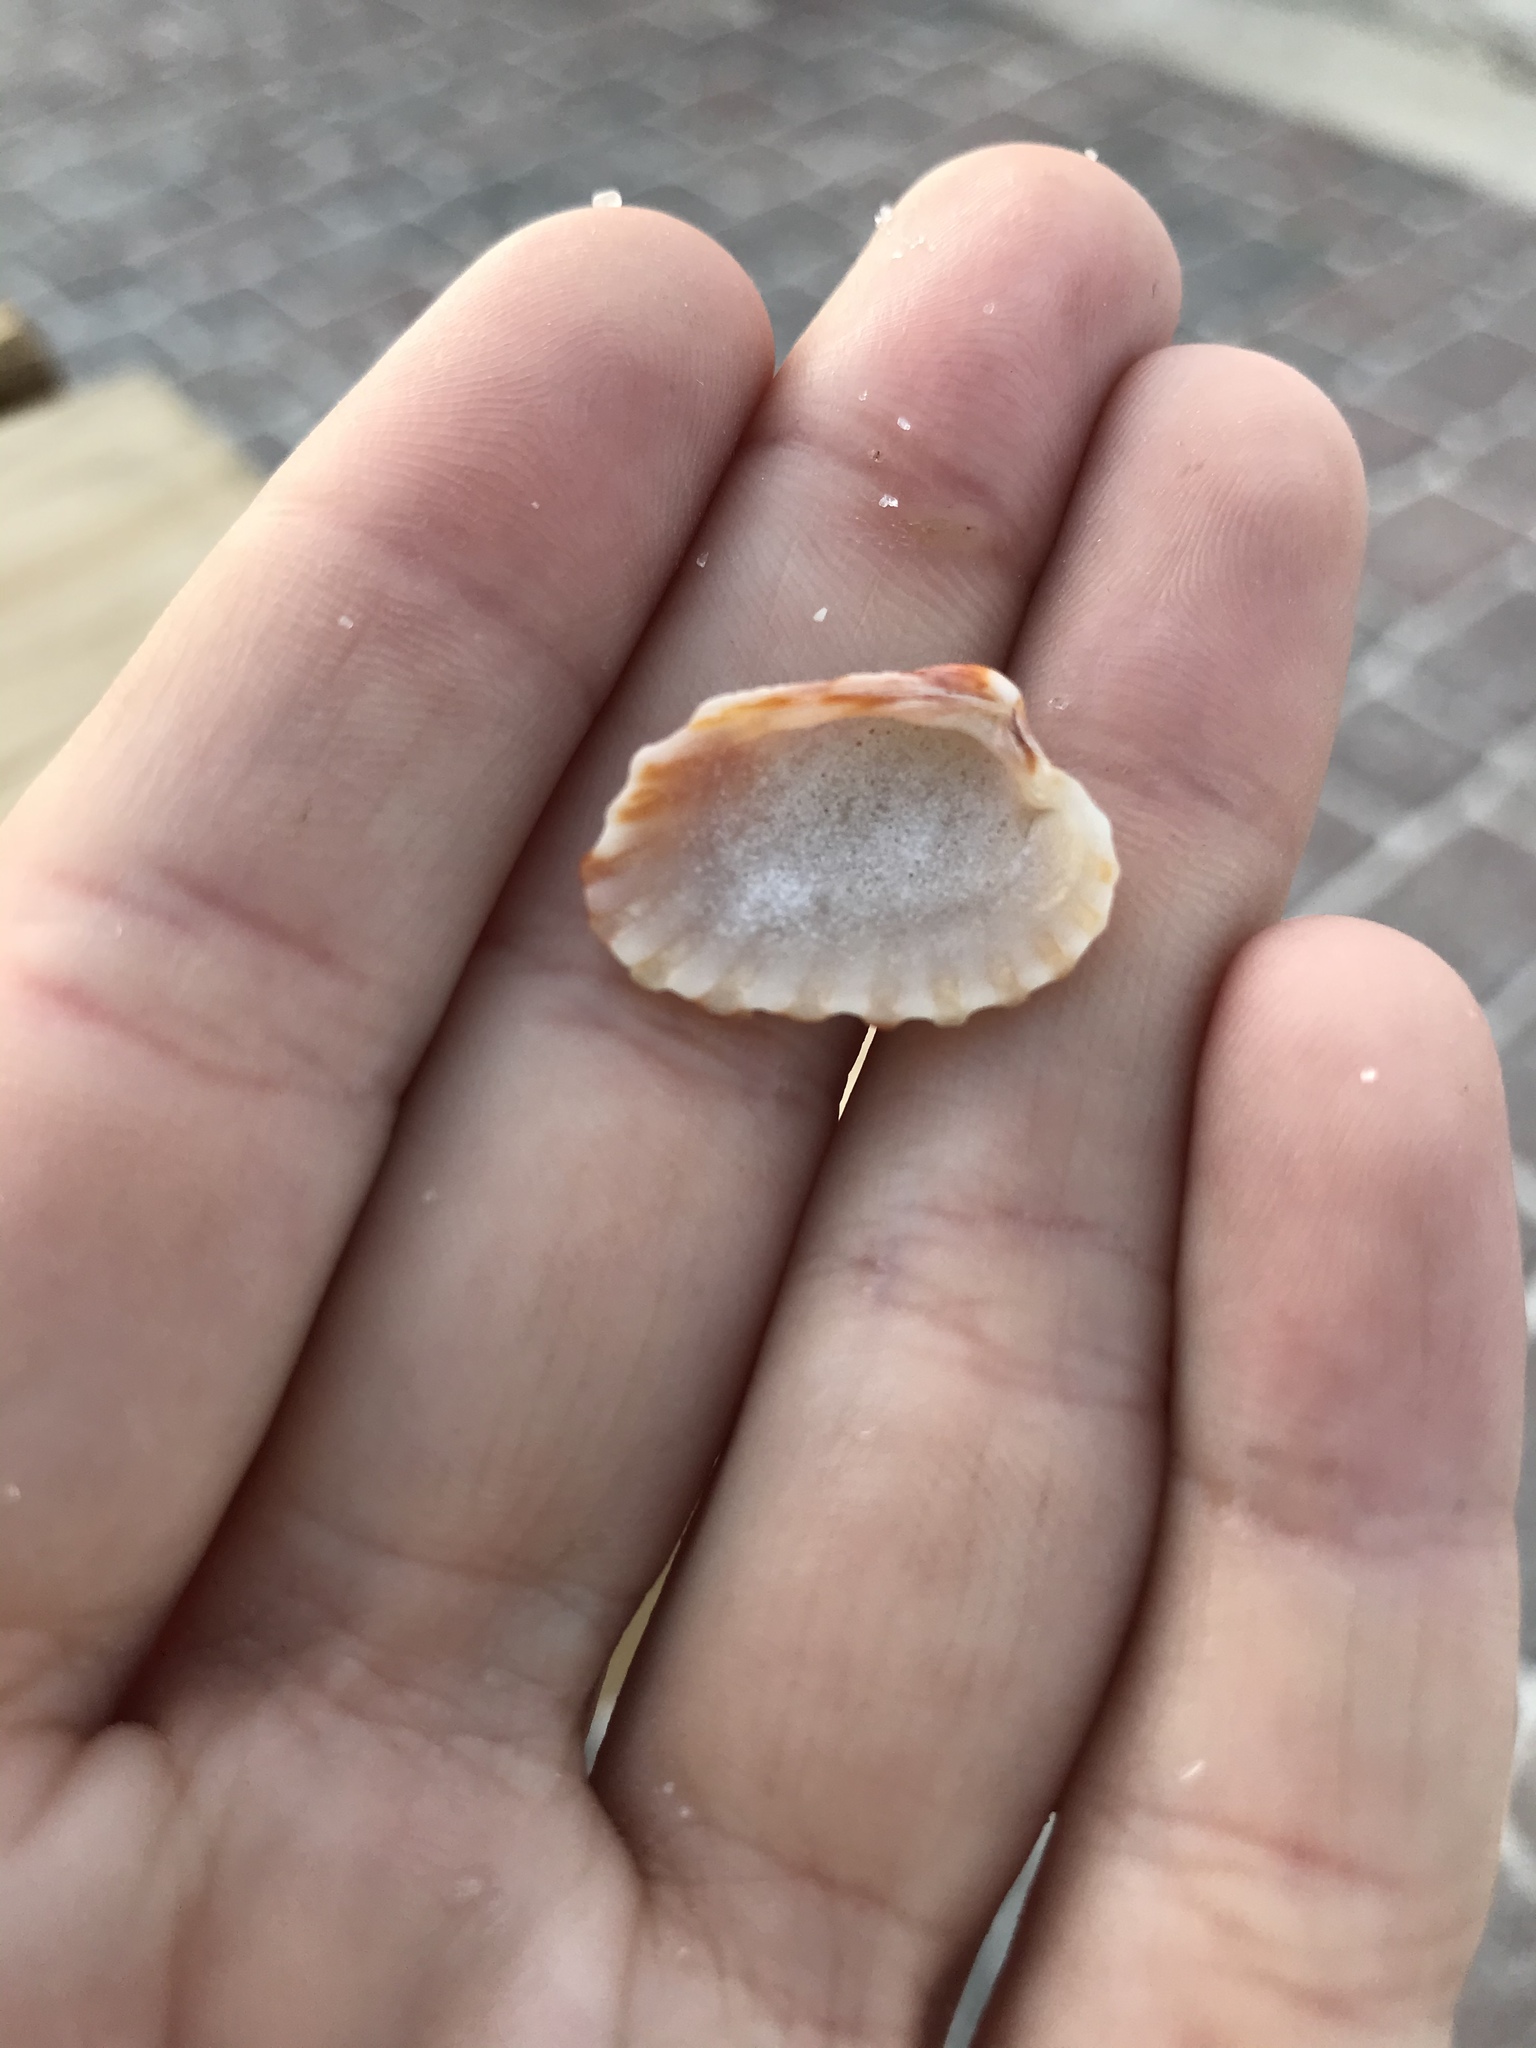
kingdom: Animalia
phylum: Mollusca
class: Bivalvia
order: Carditida
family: Carditidae
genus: Cardites
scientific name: Cardites floridanus
